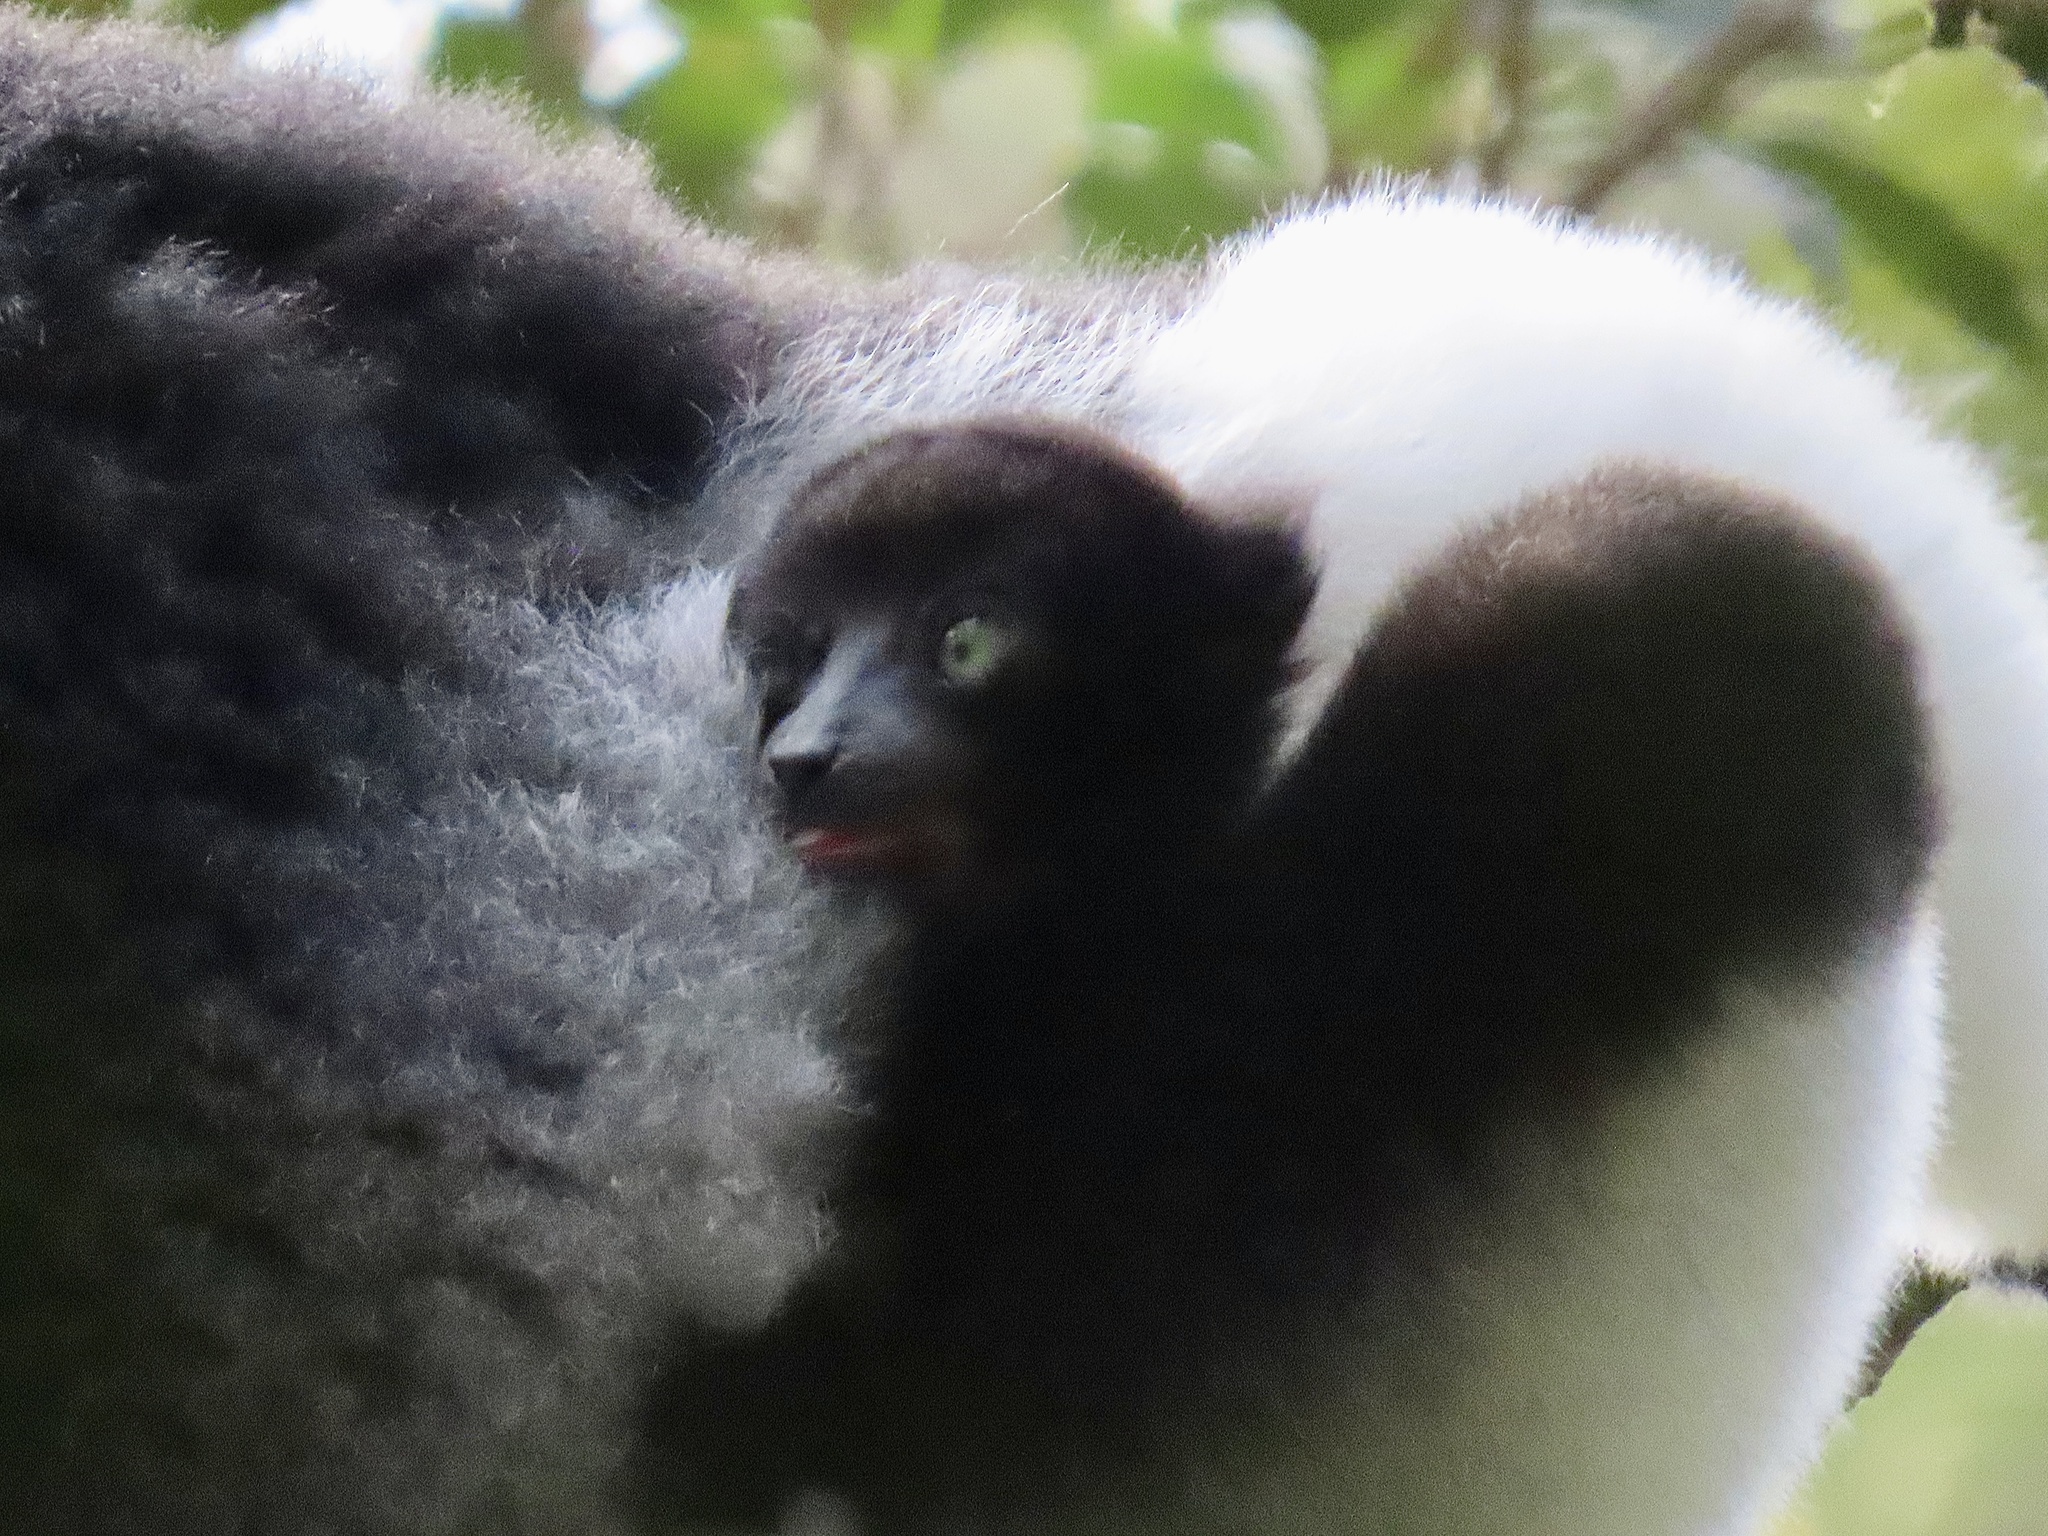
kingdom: Animalia
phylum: Chordata
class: Mammalia
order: Primates
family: Indriidae
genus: Indri
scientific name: Indri indri
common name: Indri
